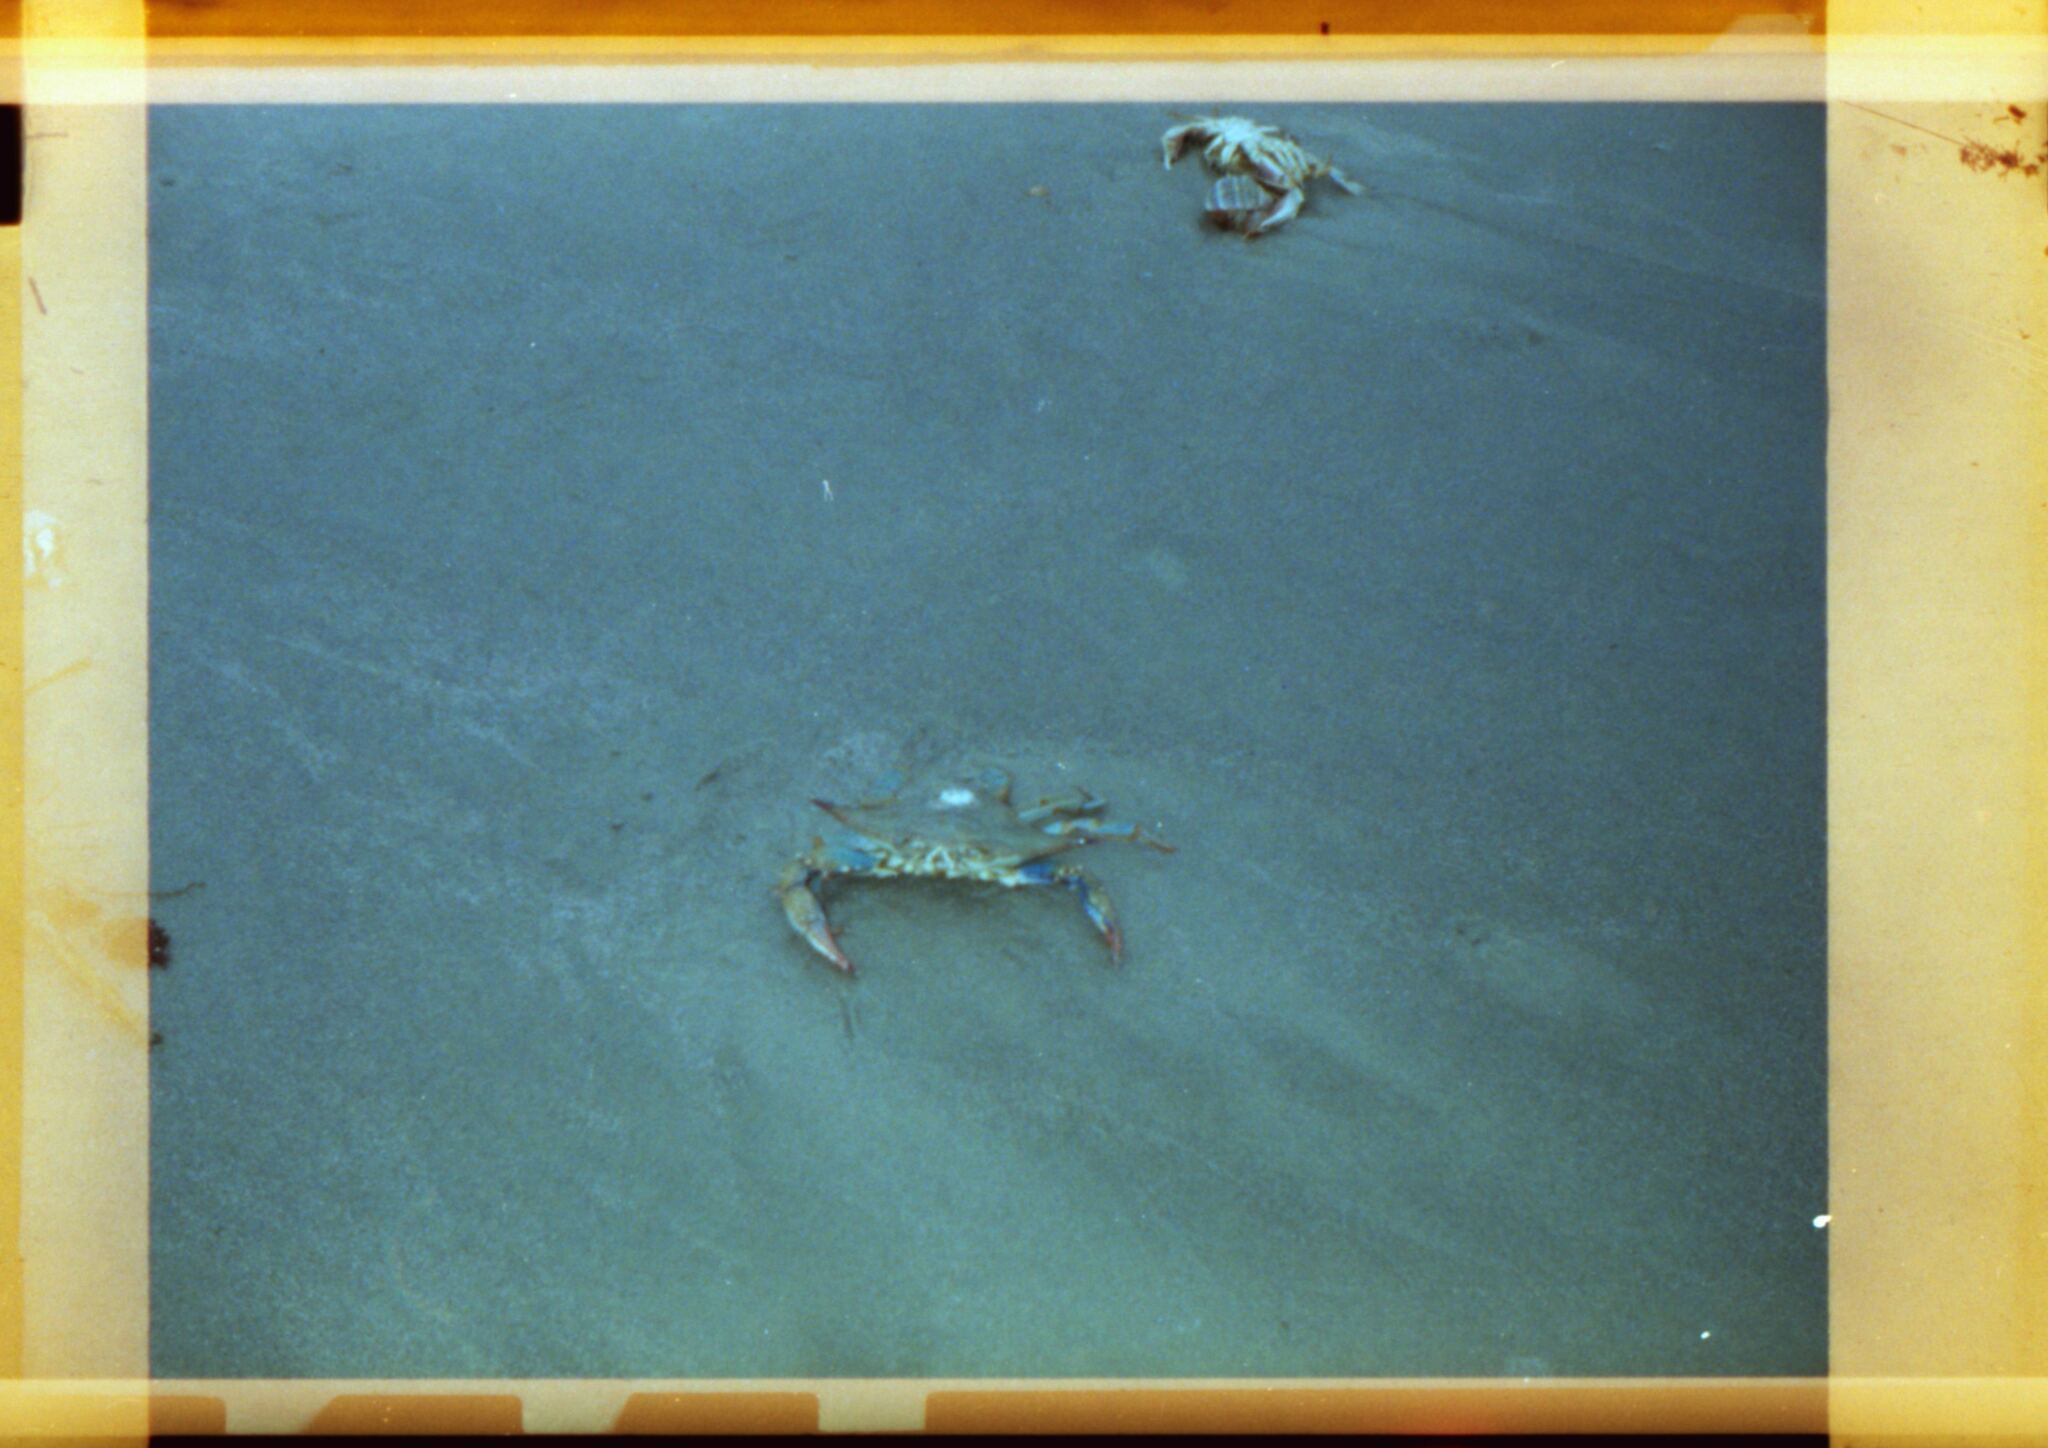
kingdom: Animalia
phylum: Arthropoda
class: Malacostraca
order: Decapoda
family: Portunidae
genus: Callinectes
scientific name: Callinectes sapidus
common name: Blue crab
